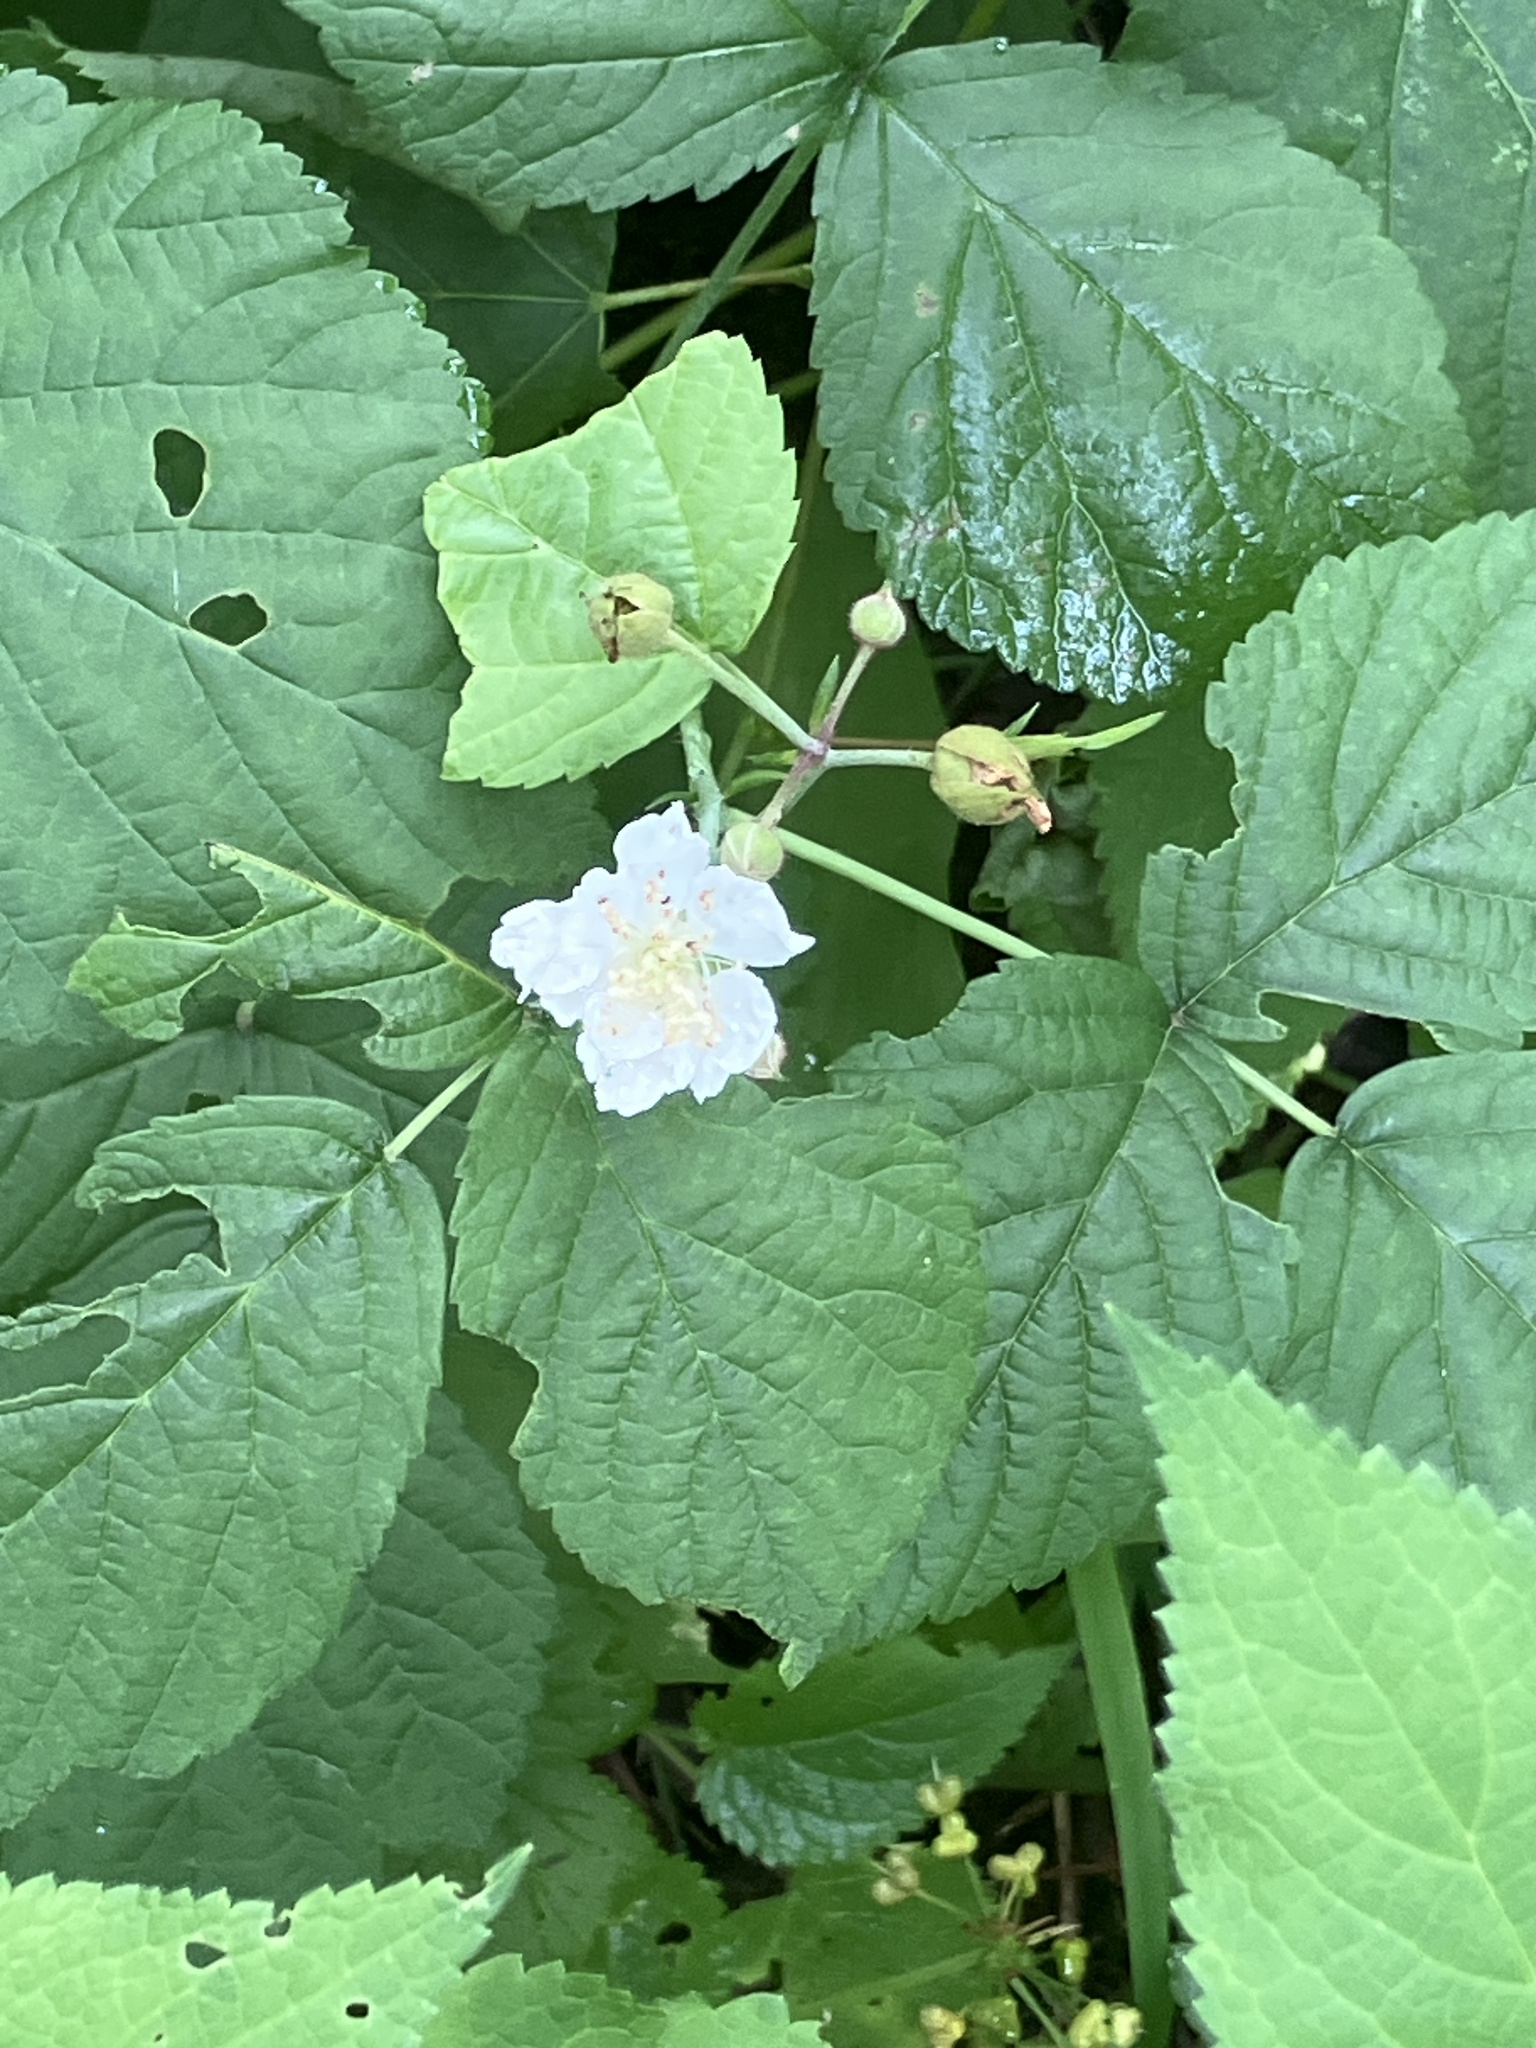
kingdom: Plantae
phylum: Tracheophyta
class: Magnoliopsida
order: Rosales
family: Rosaceae
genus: Rubus
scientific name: Rubus caesius
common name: Dewberry
